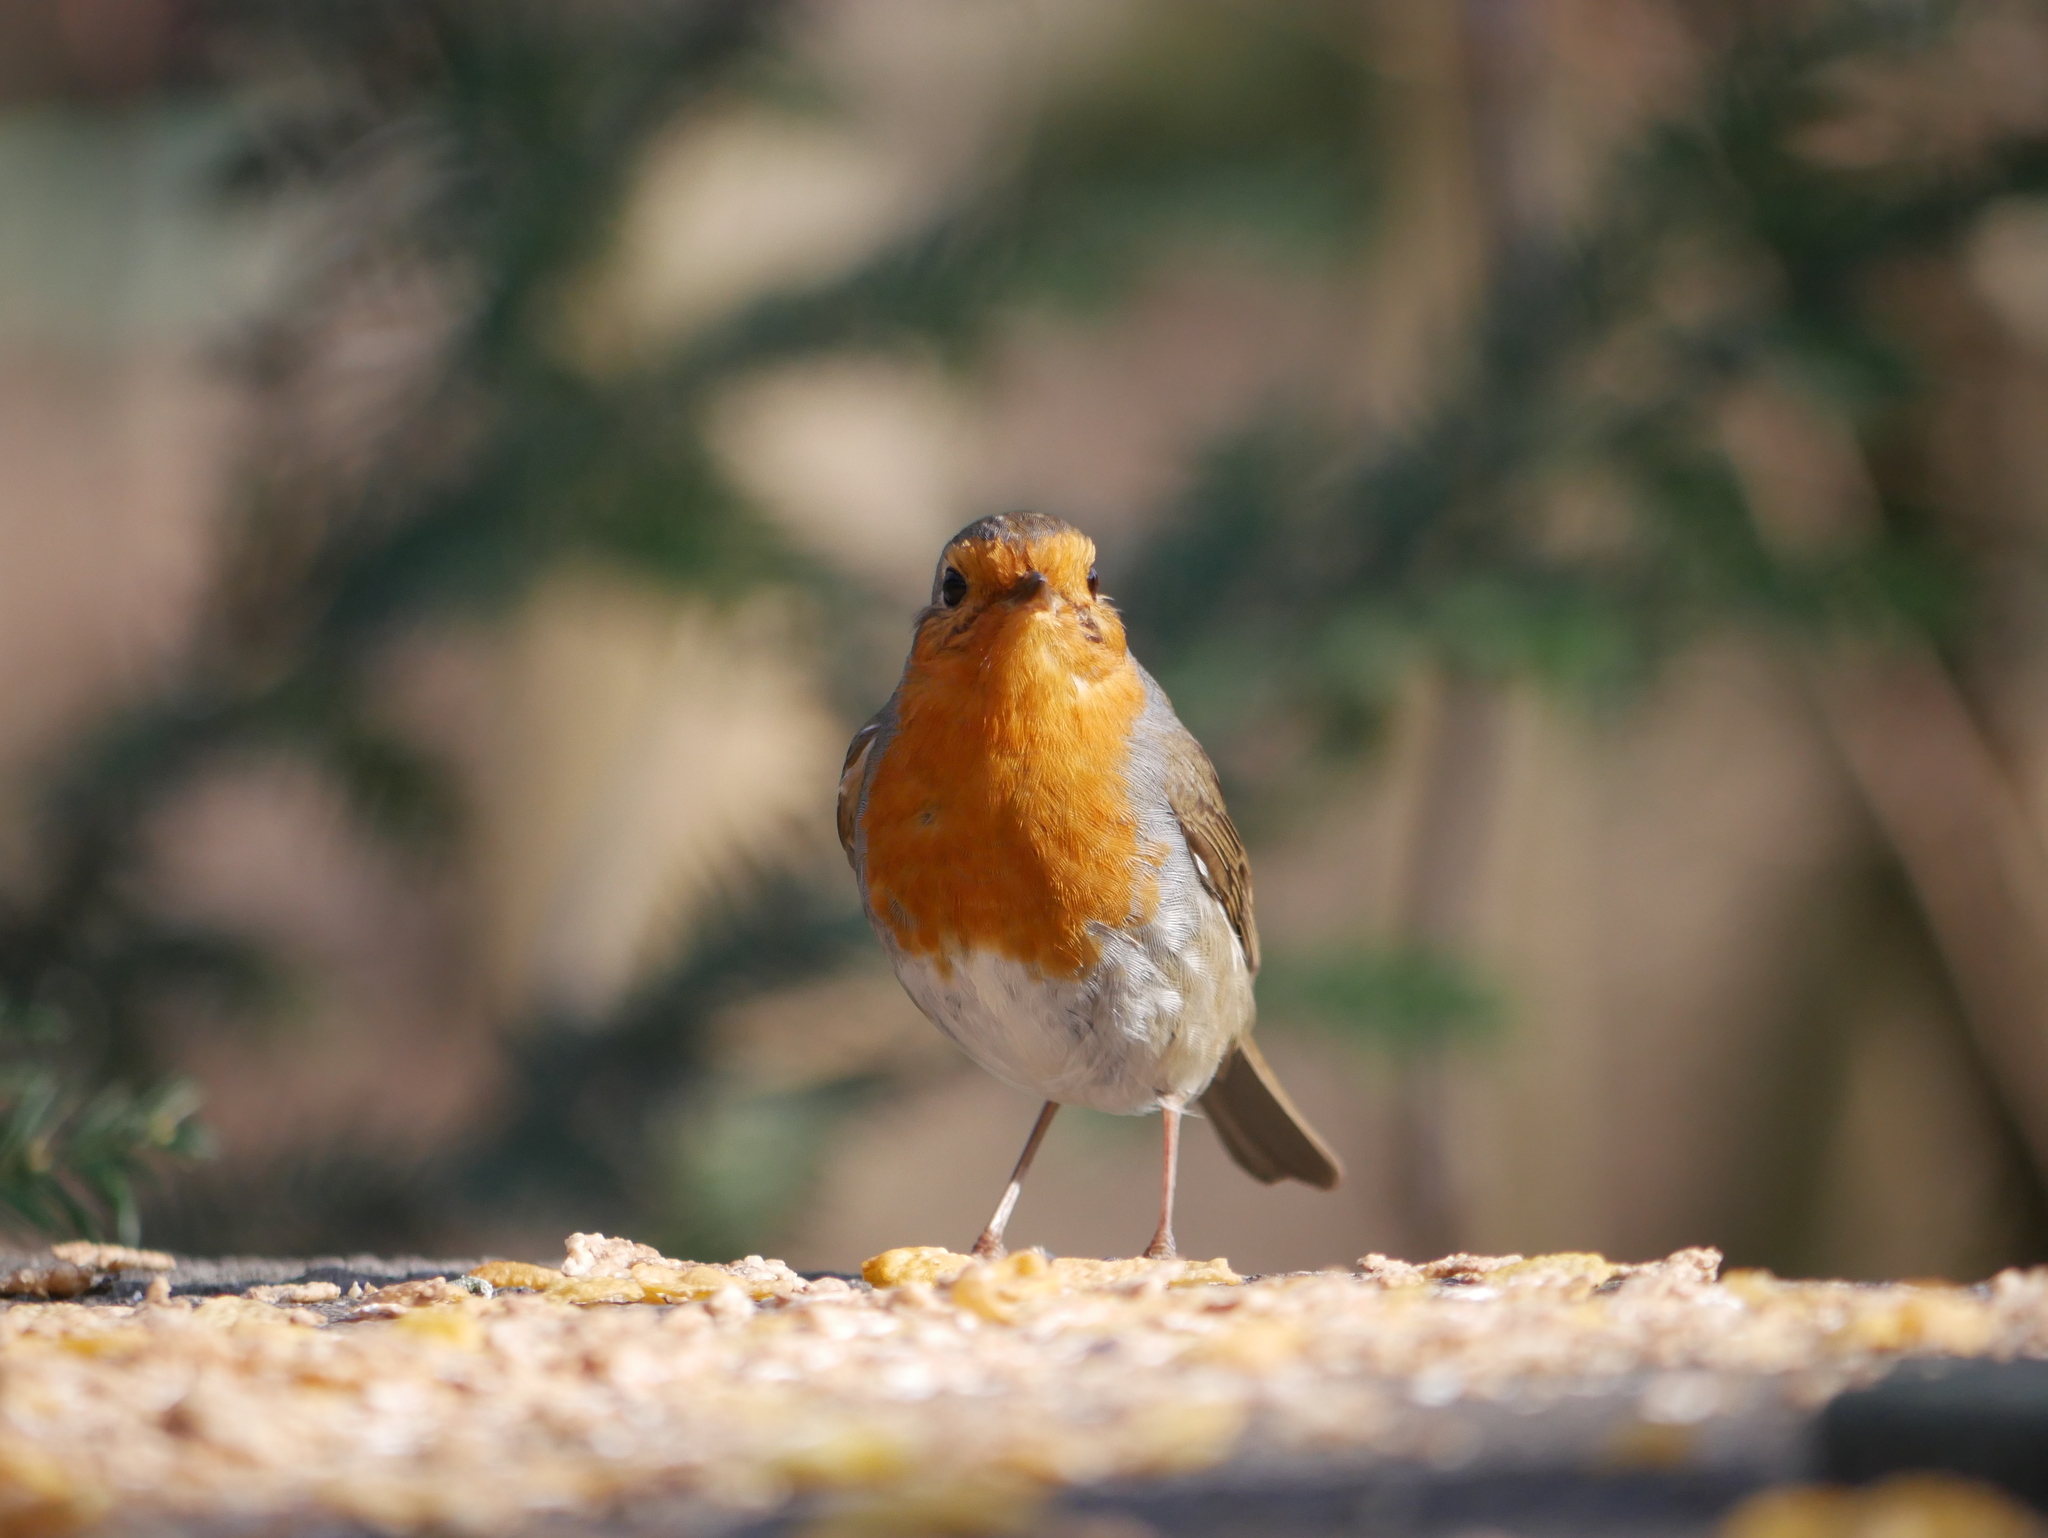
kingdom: Animalia
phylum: Chordata
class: Aves
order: Passeriformes
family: Muscicapidae
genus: Erithacus
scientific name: Erithacus rubecula
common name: European robin
